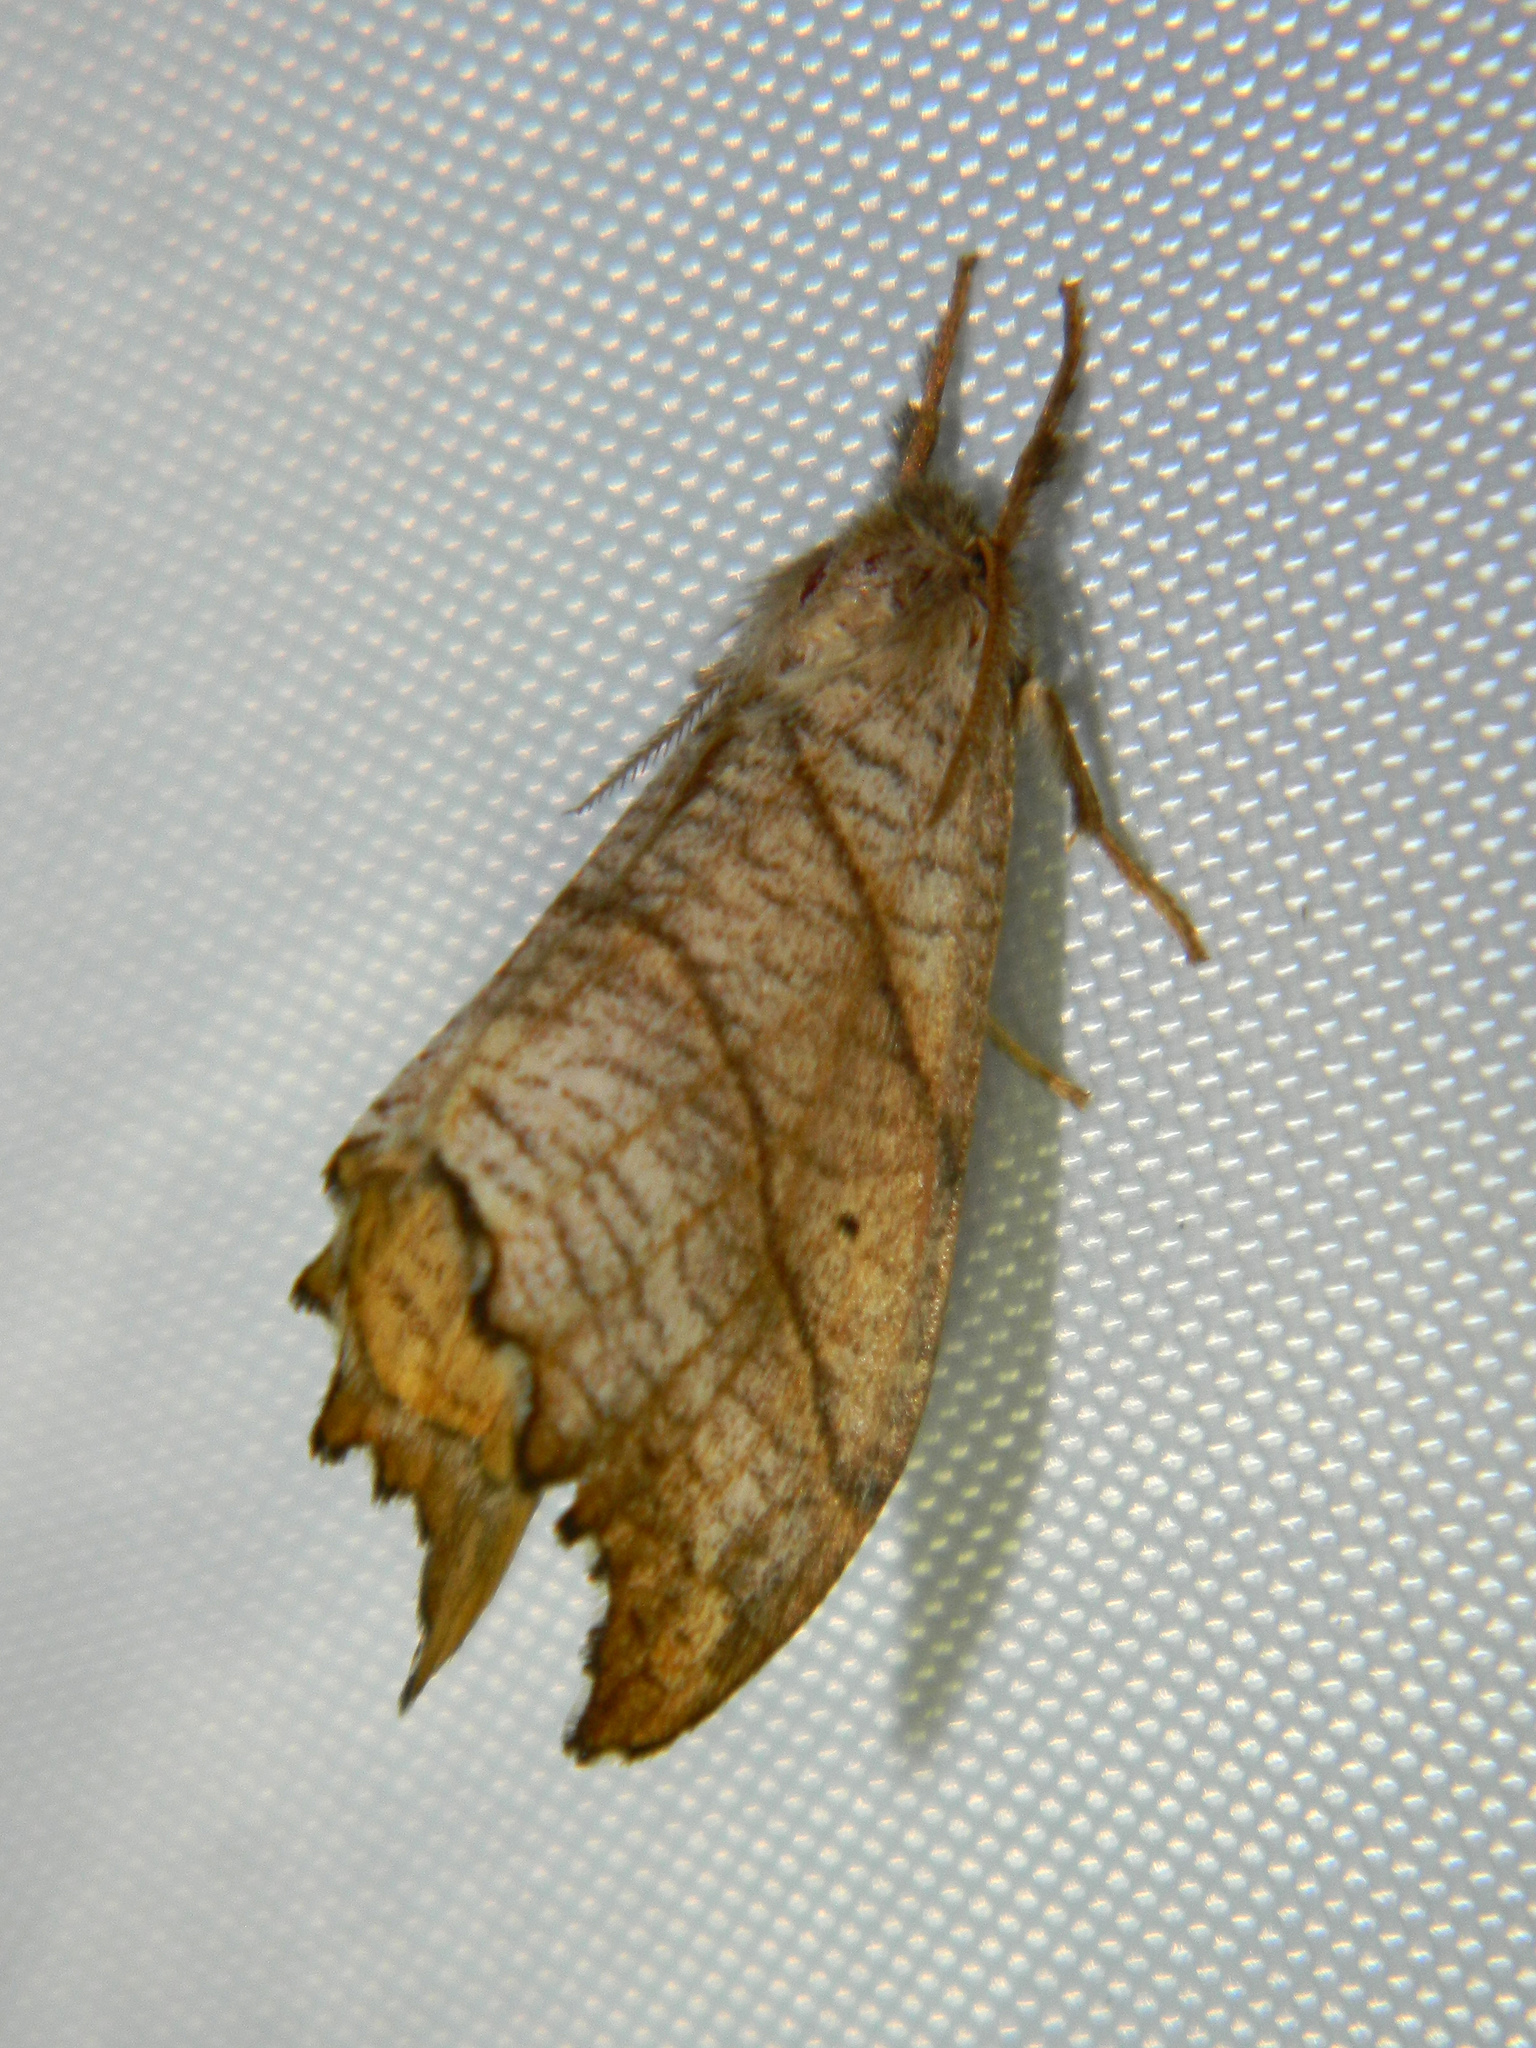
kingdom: Animalia
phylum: Arthropoda
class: Insecta
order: Lepidoptera
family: Drepanidae
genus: Falcaria
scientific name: Falcaria bilineata
